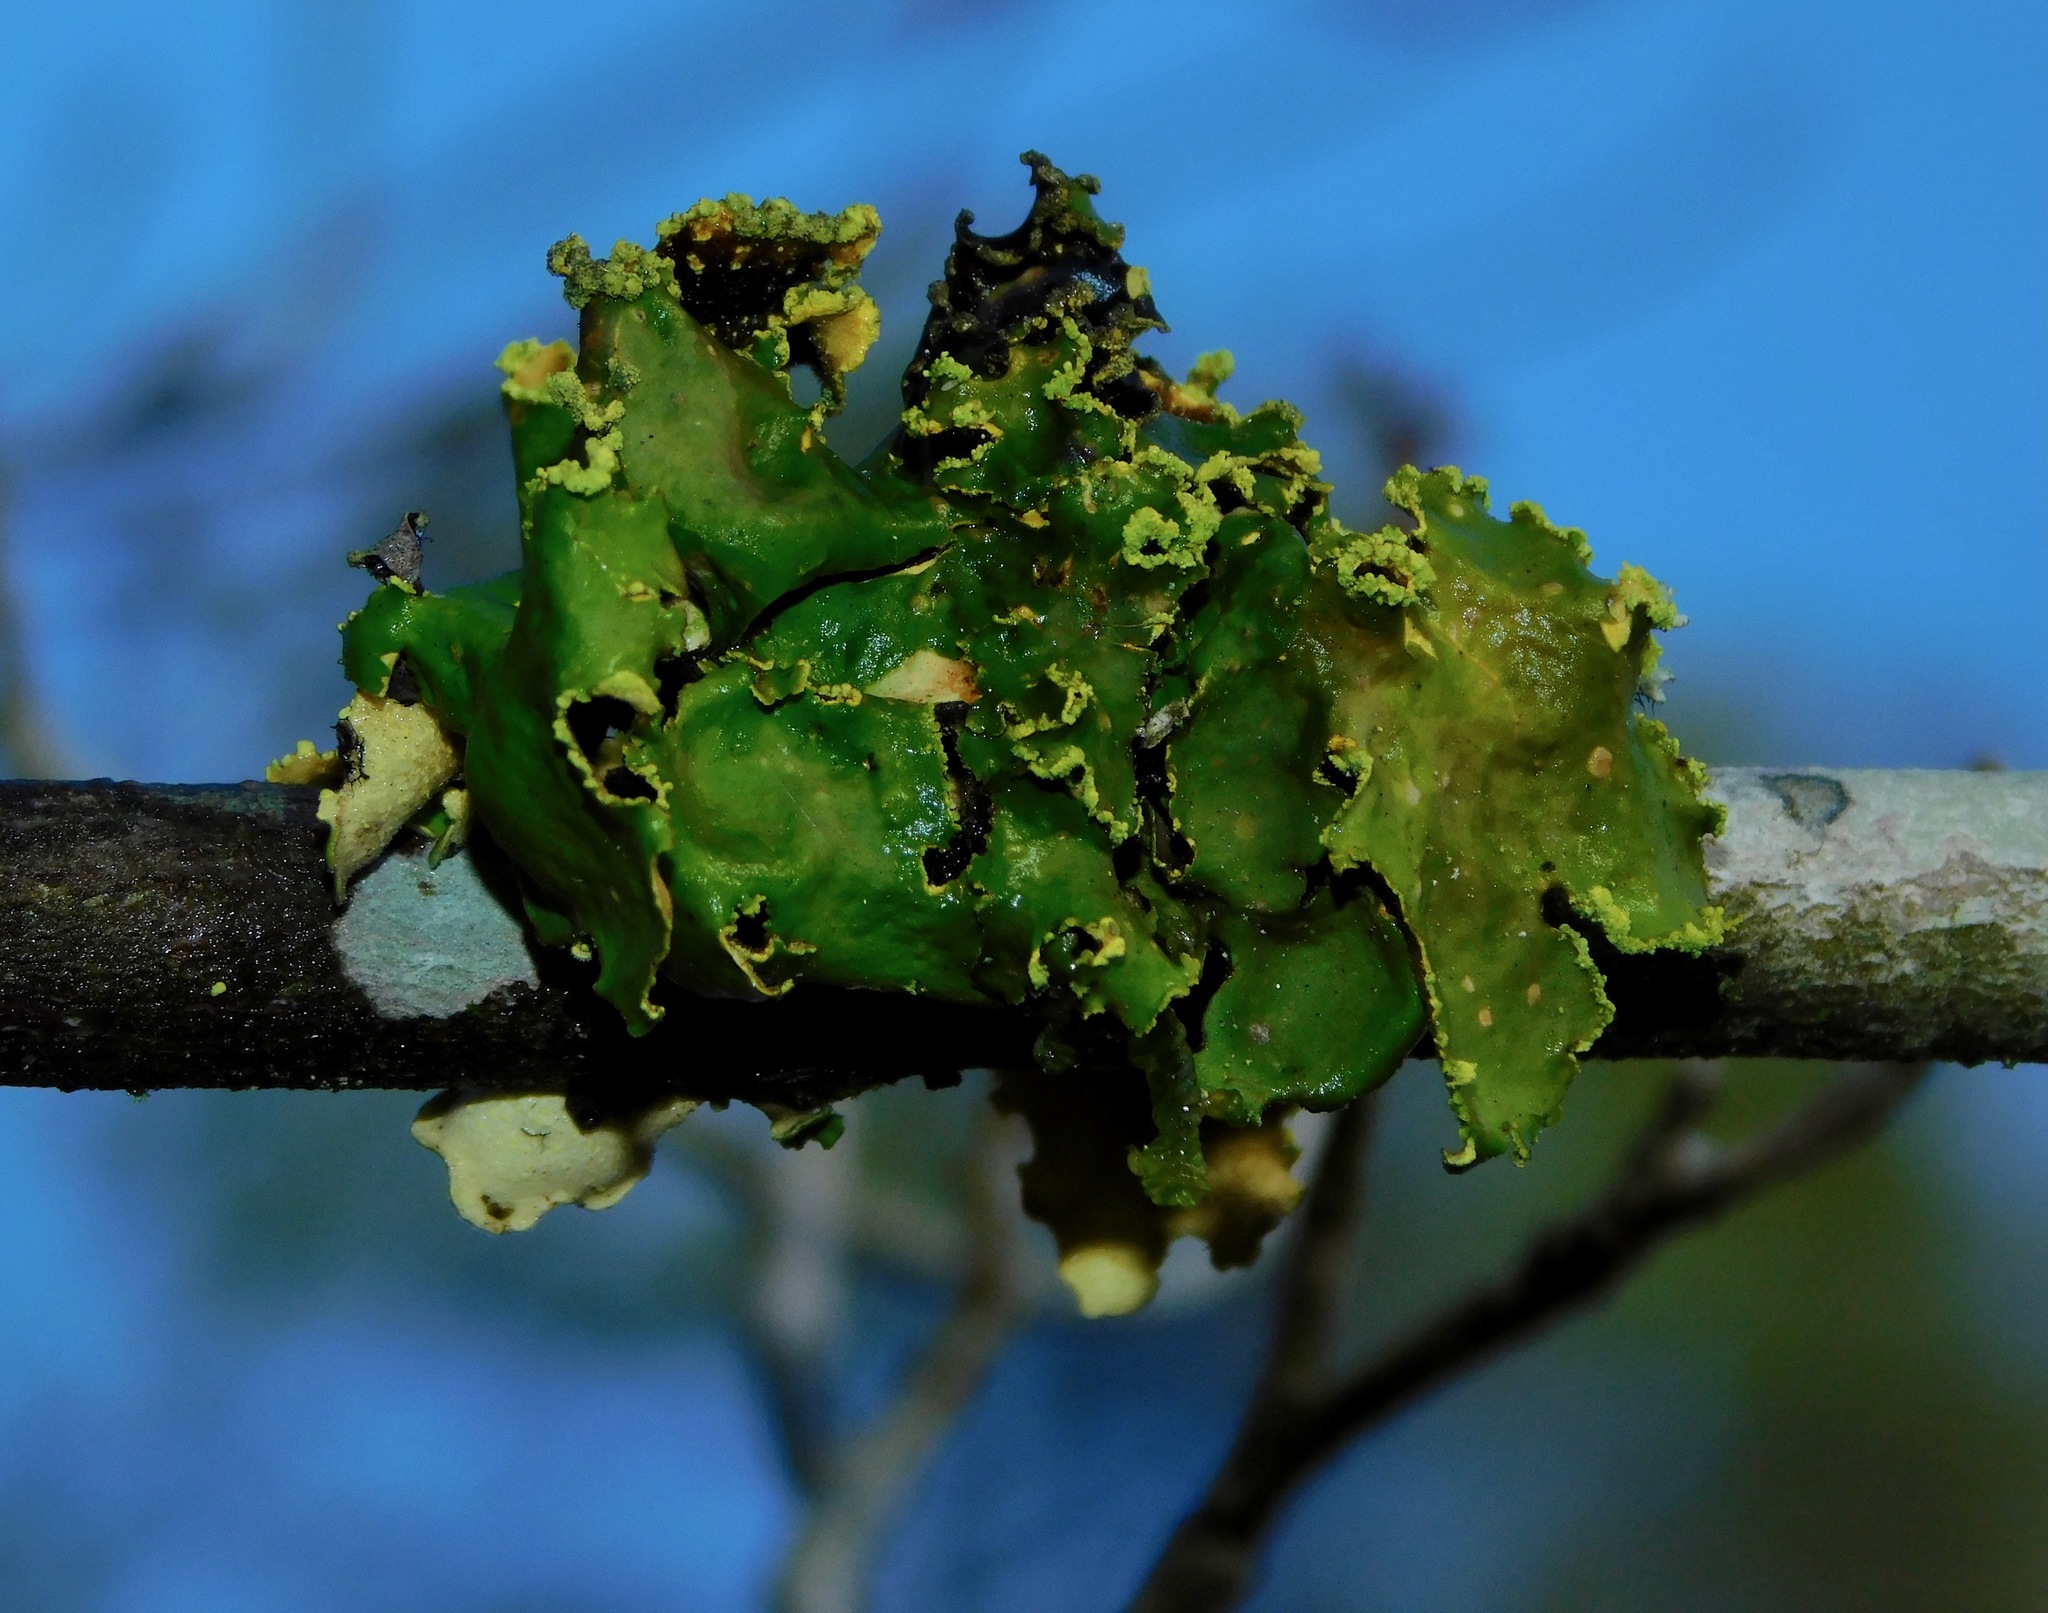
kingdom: Fungi
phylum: Ascomycota
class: Lecanoromycetes
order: Peltigerales
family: Lobariaceae
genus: Pseudocyphellaria
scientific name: Pseudocyphellaria aurata
